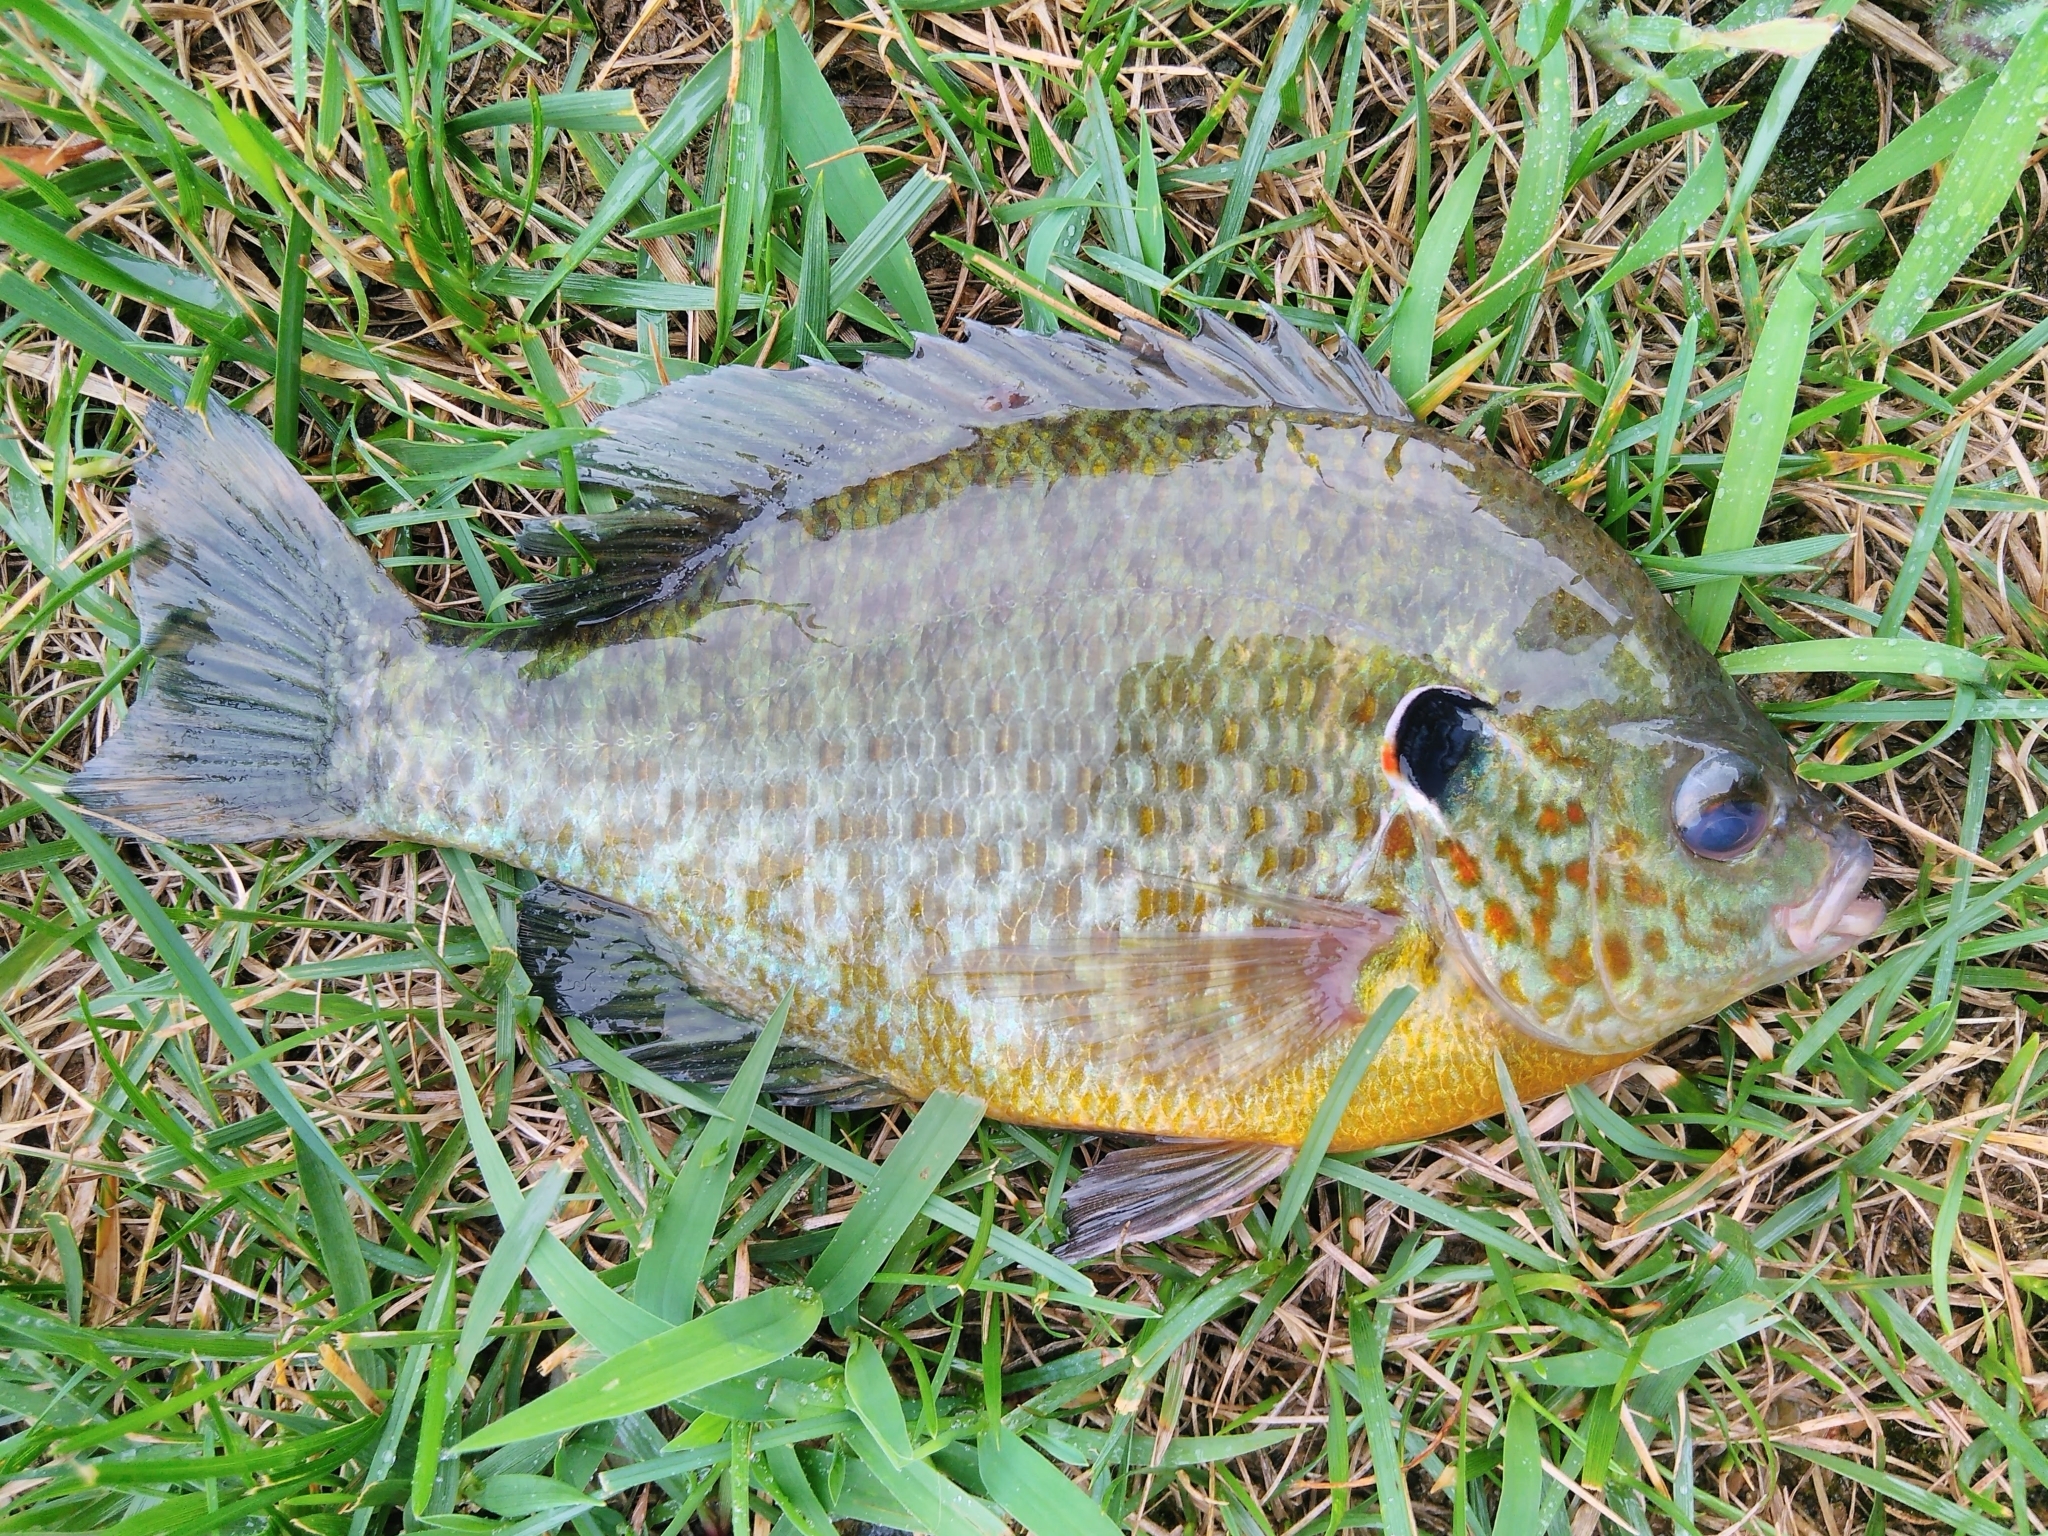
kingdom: Animalia
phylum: Chordata
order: Perciformes
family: Centrarchidae
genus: Lepomis
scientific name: Lepomis gibbosus
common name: Pumpkinseed
